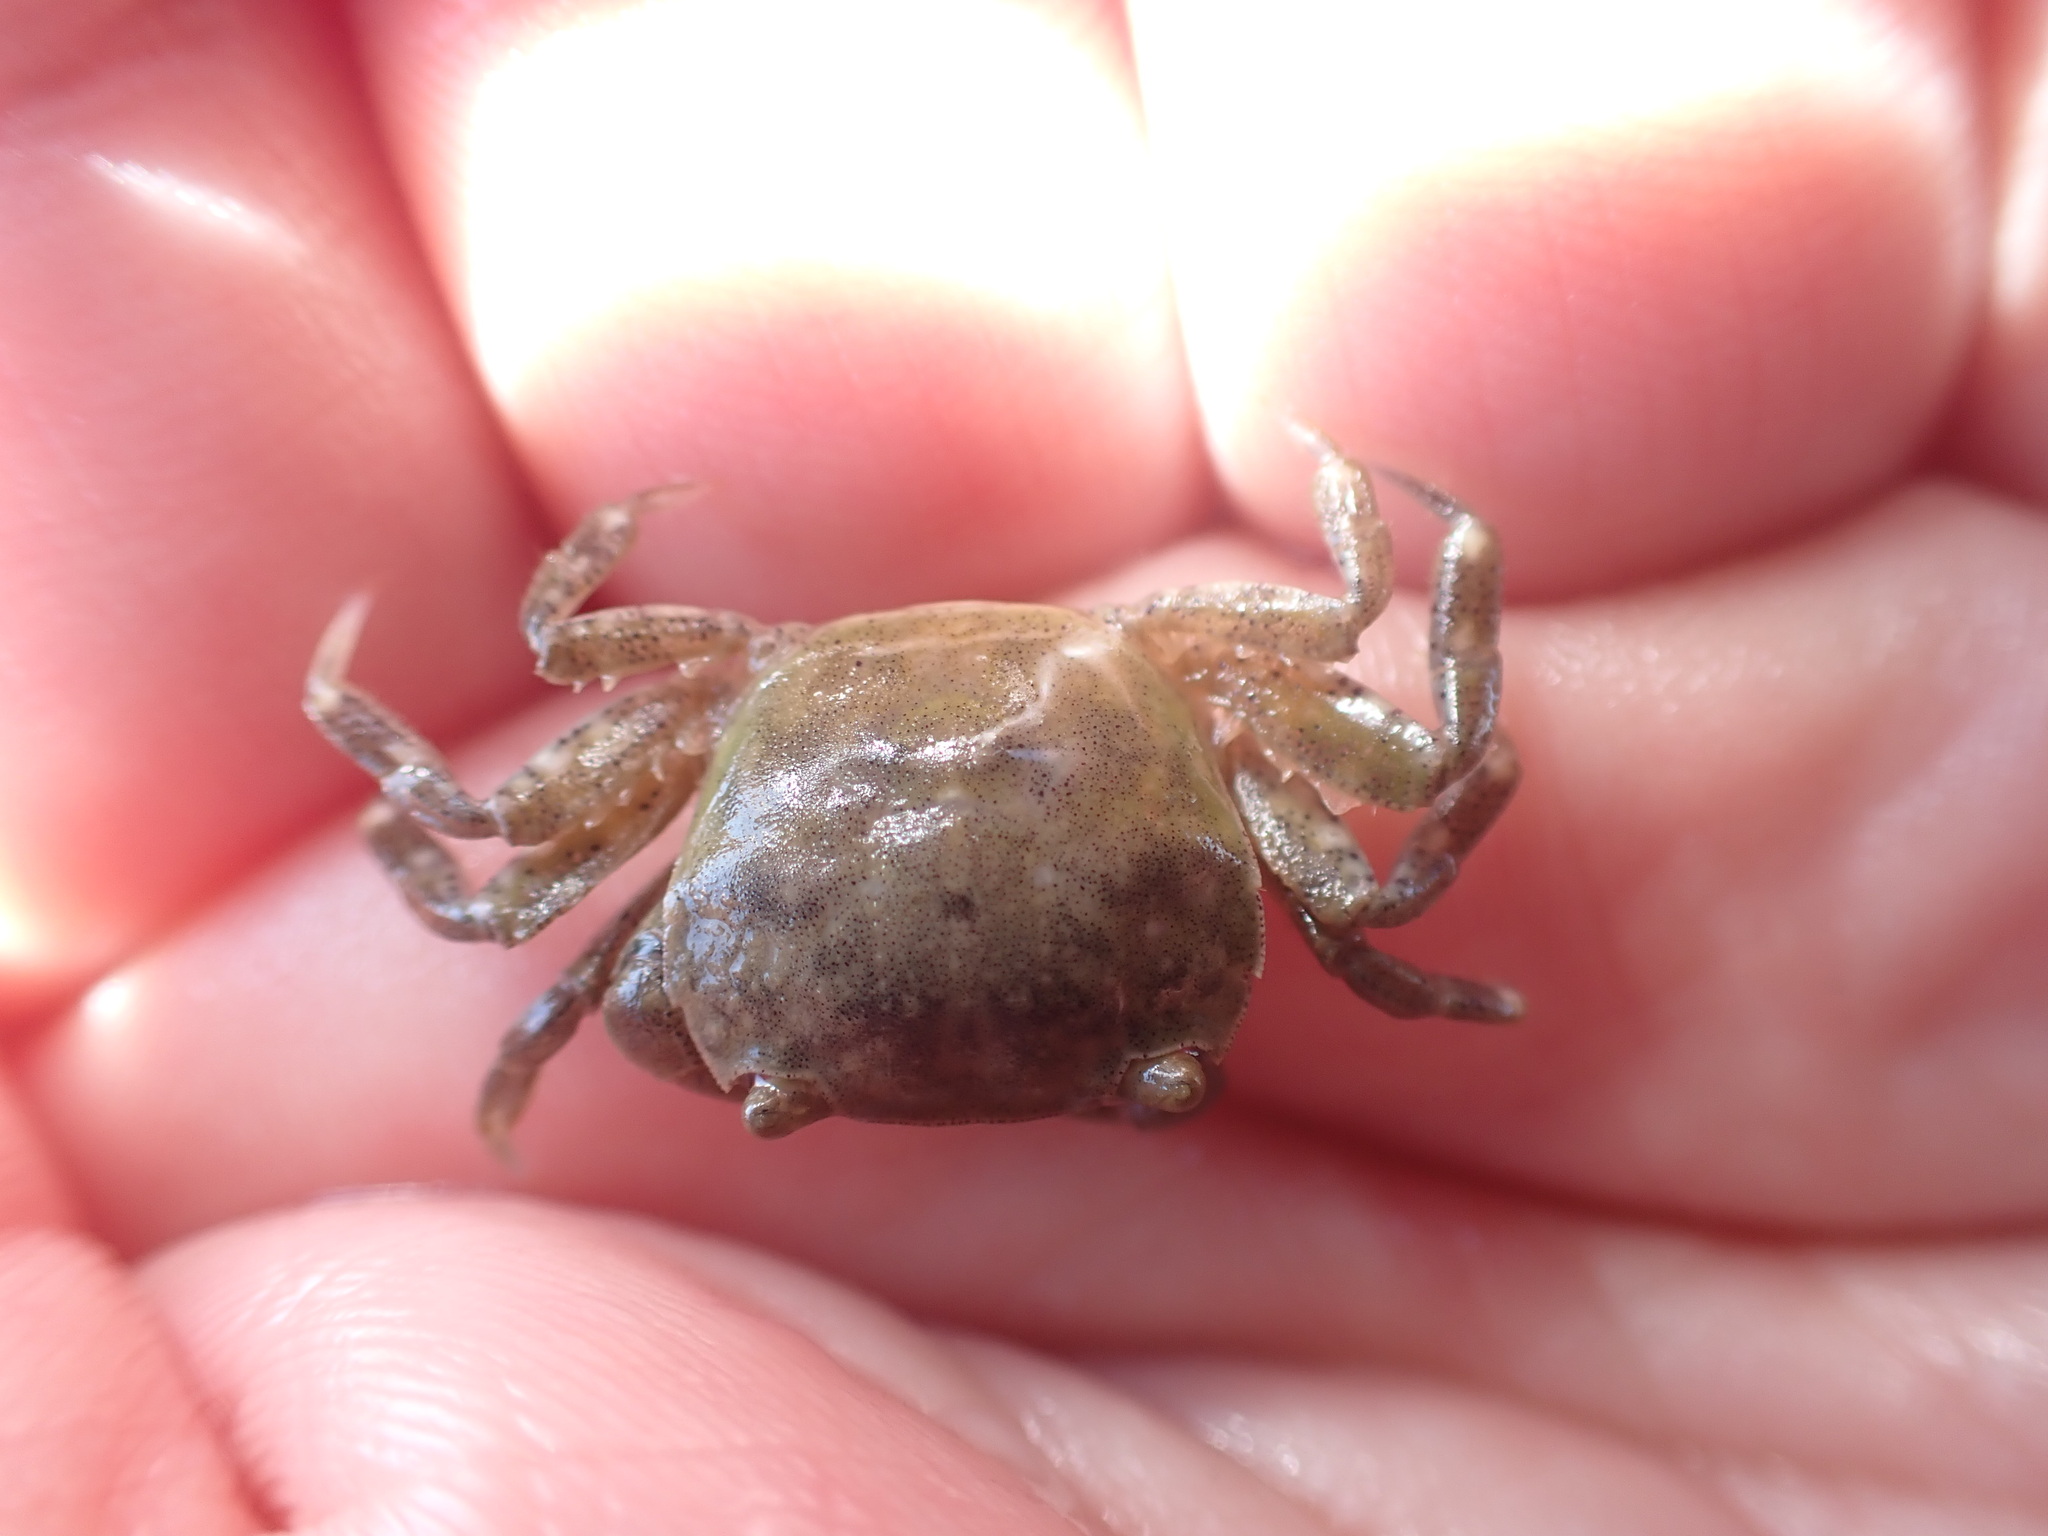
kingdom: Animalia
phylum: Arthropoda
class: Malacostraca
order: Decapoda
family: Varunidae
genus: Hemigrapsus
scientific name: Hemigrapsus crenulatus
